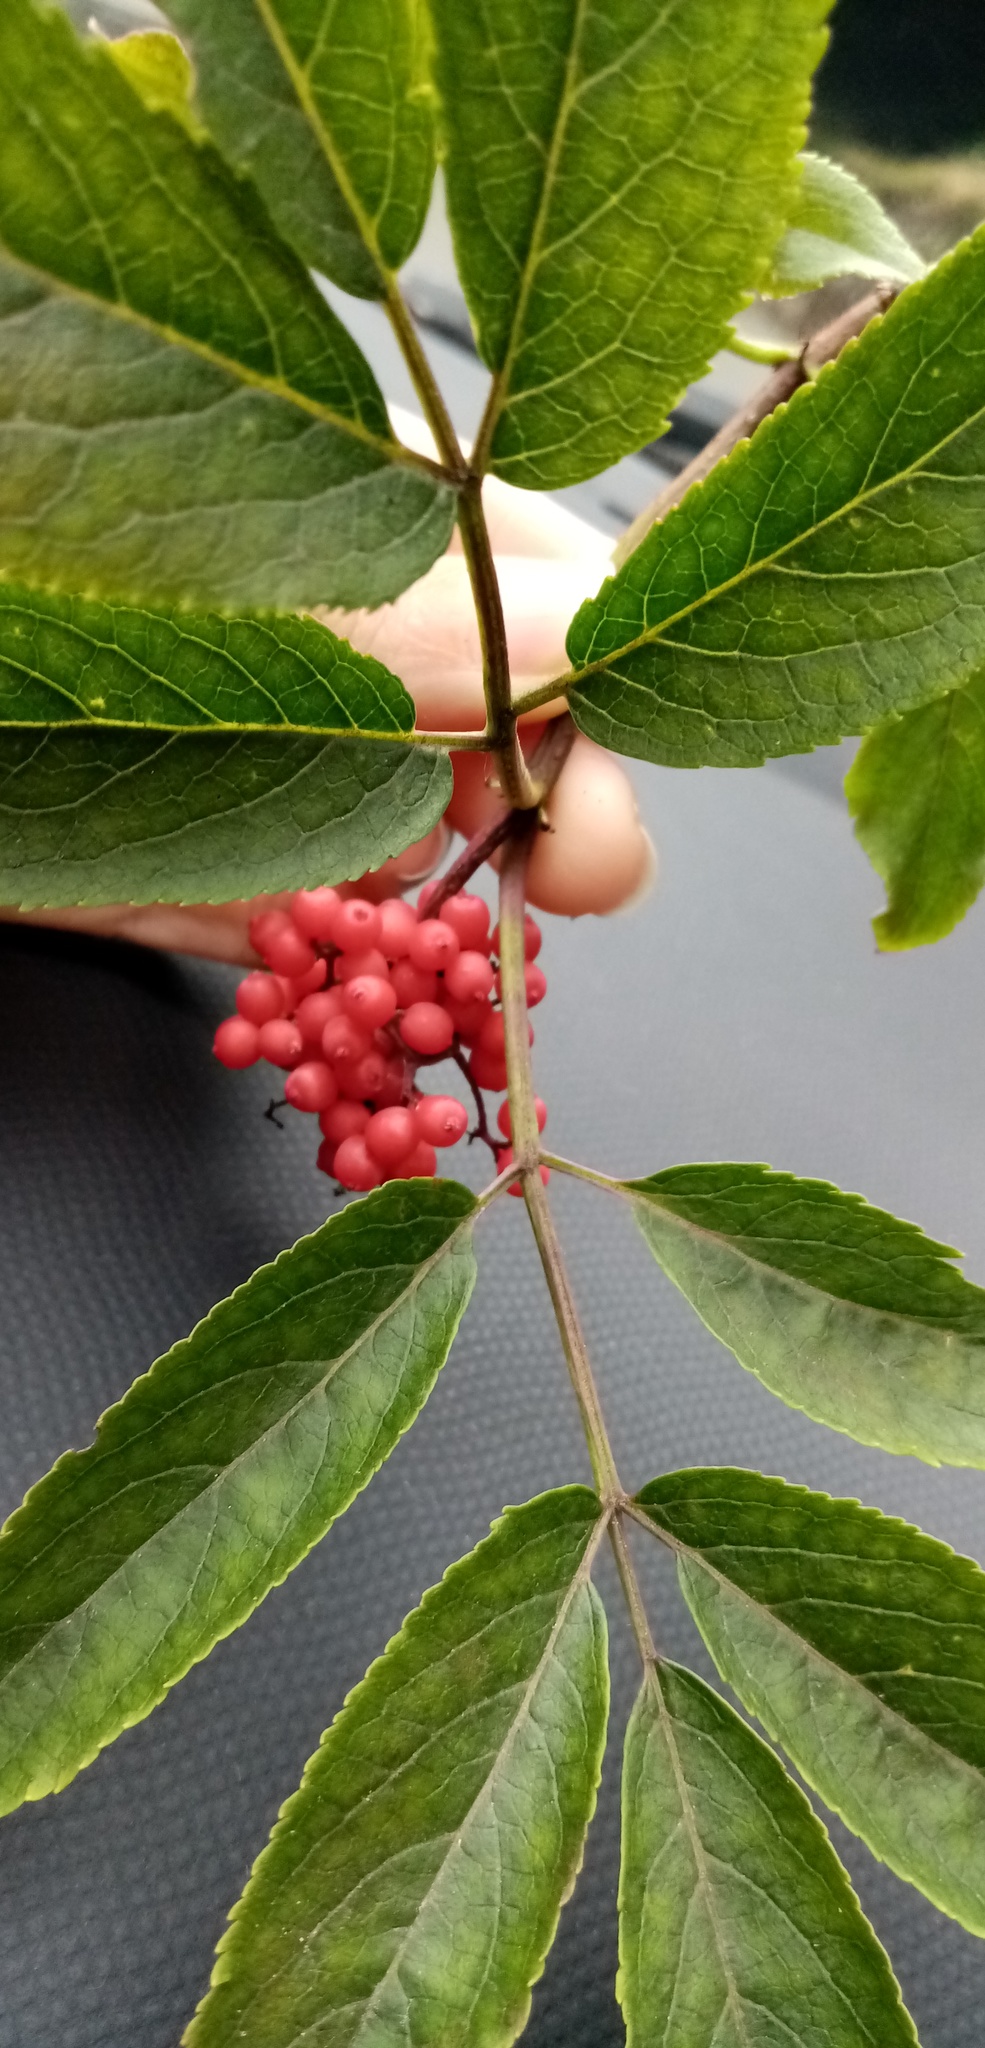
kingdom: Plantae
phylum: Tracheophyta
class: Magnoliopsida
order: Dipsacales
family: Viburnaceae
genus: Sambucus
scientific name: Sambucus racemosa
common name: Red-berried elder
